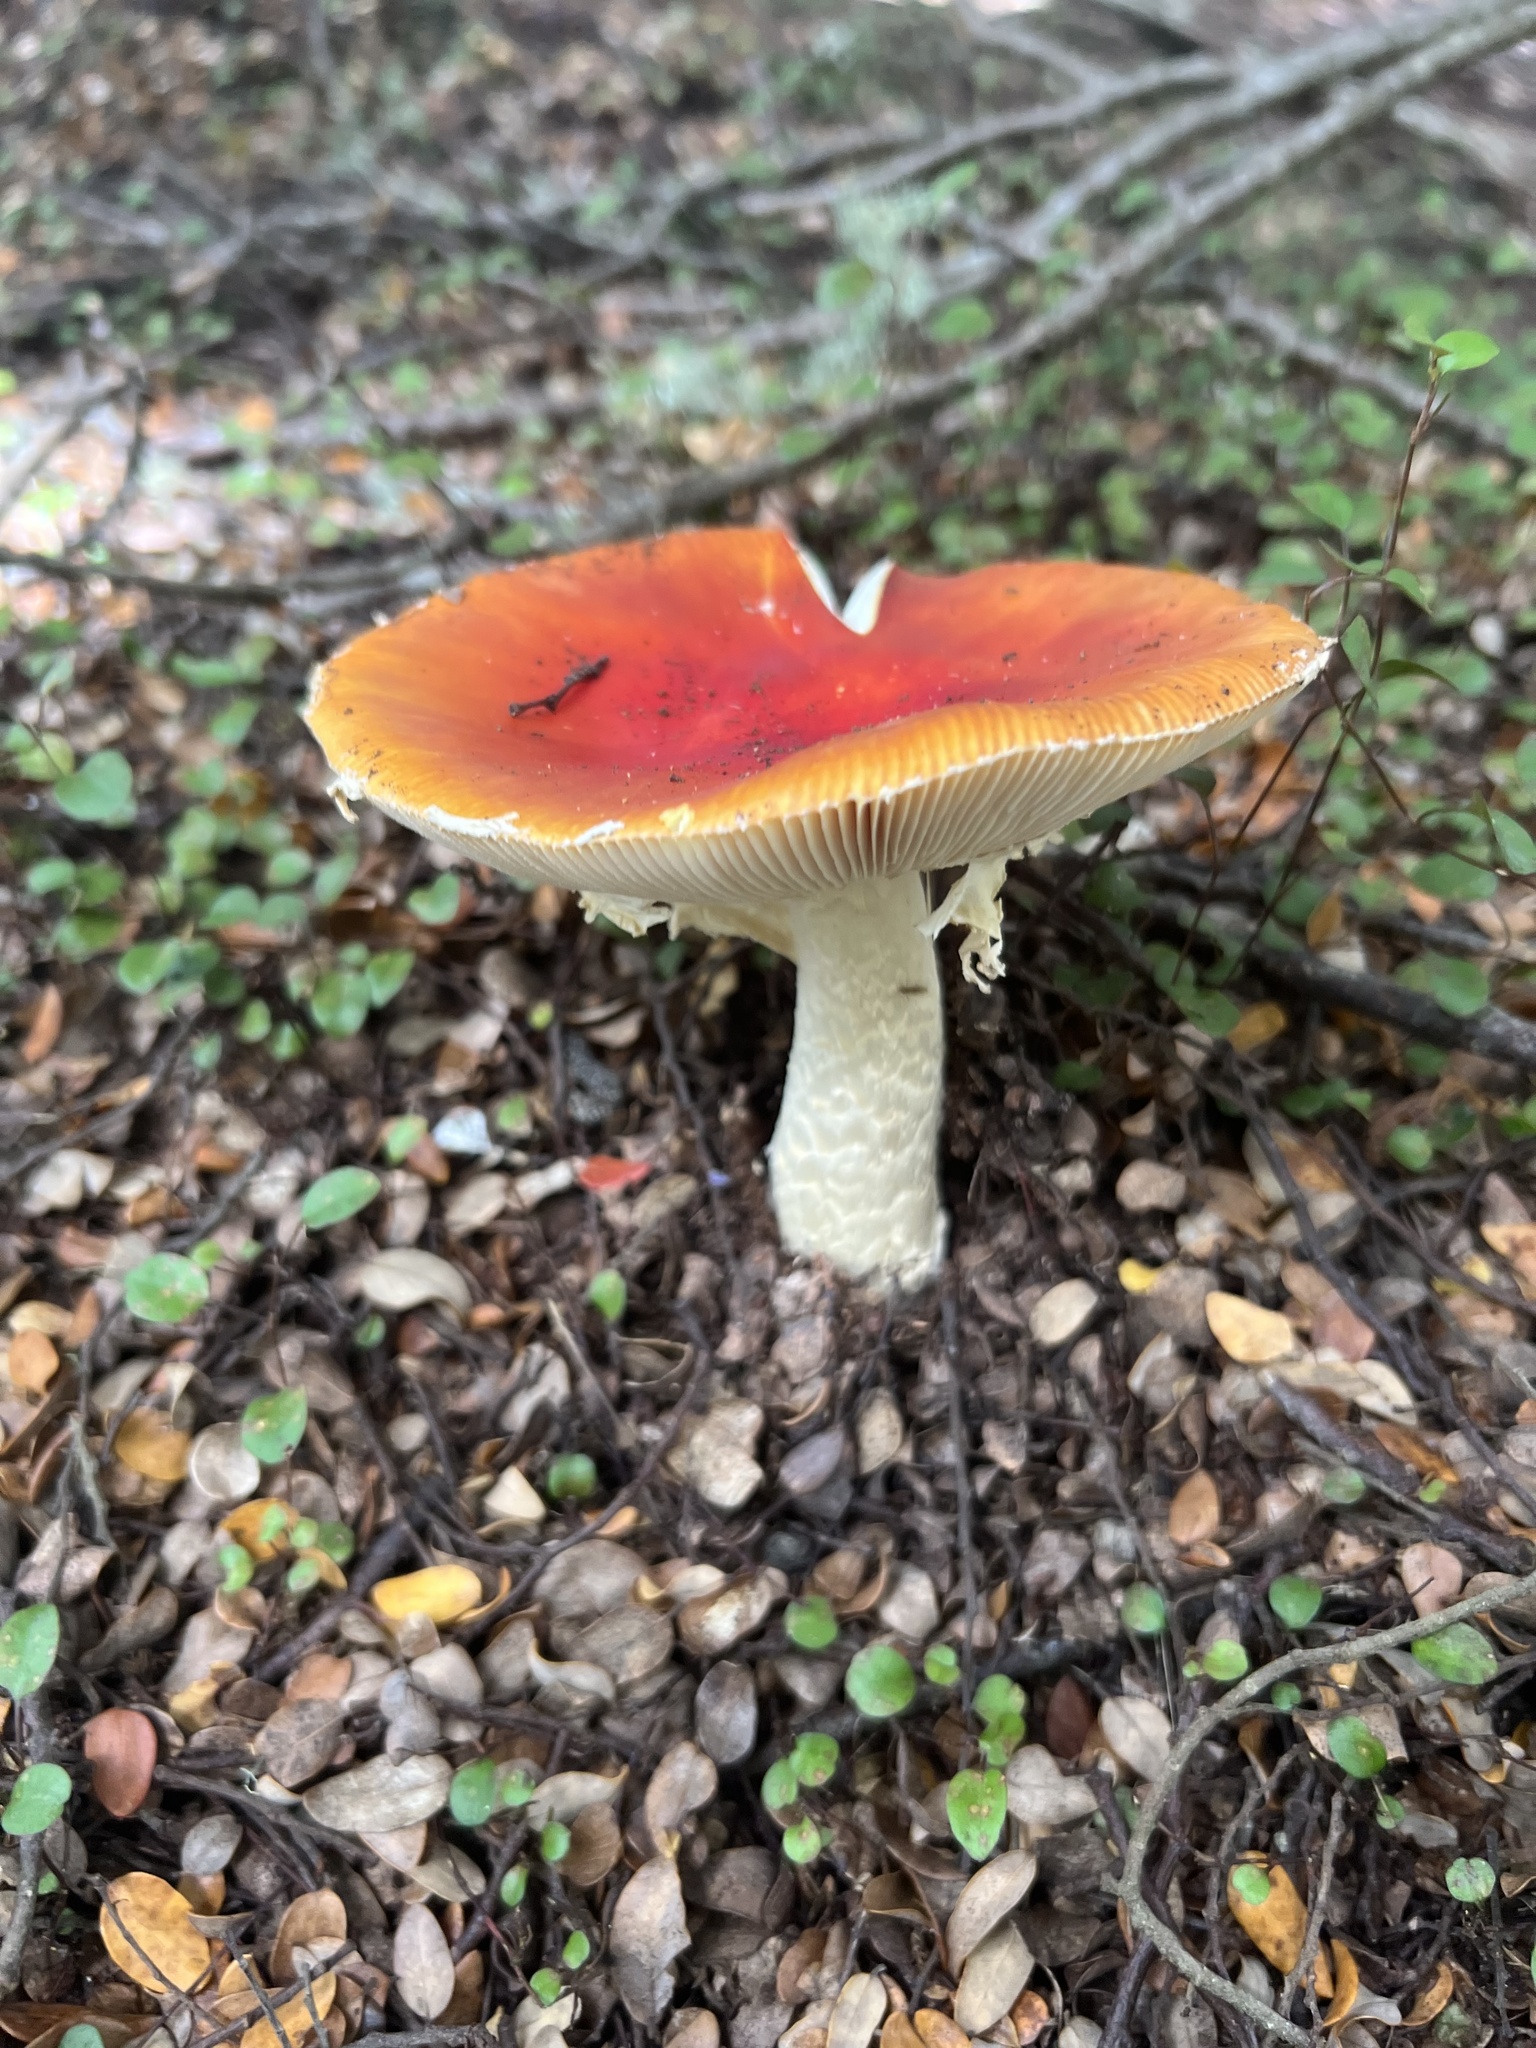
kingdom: Fungi
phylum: Basidiomycota
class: Agaricomycetes
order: Agaricales
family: Amanitaceae
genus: Amanita
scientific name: Amanita muscaria
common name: Fly agaric
